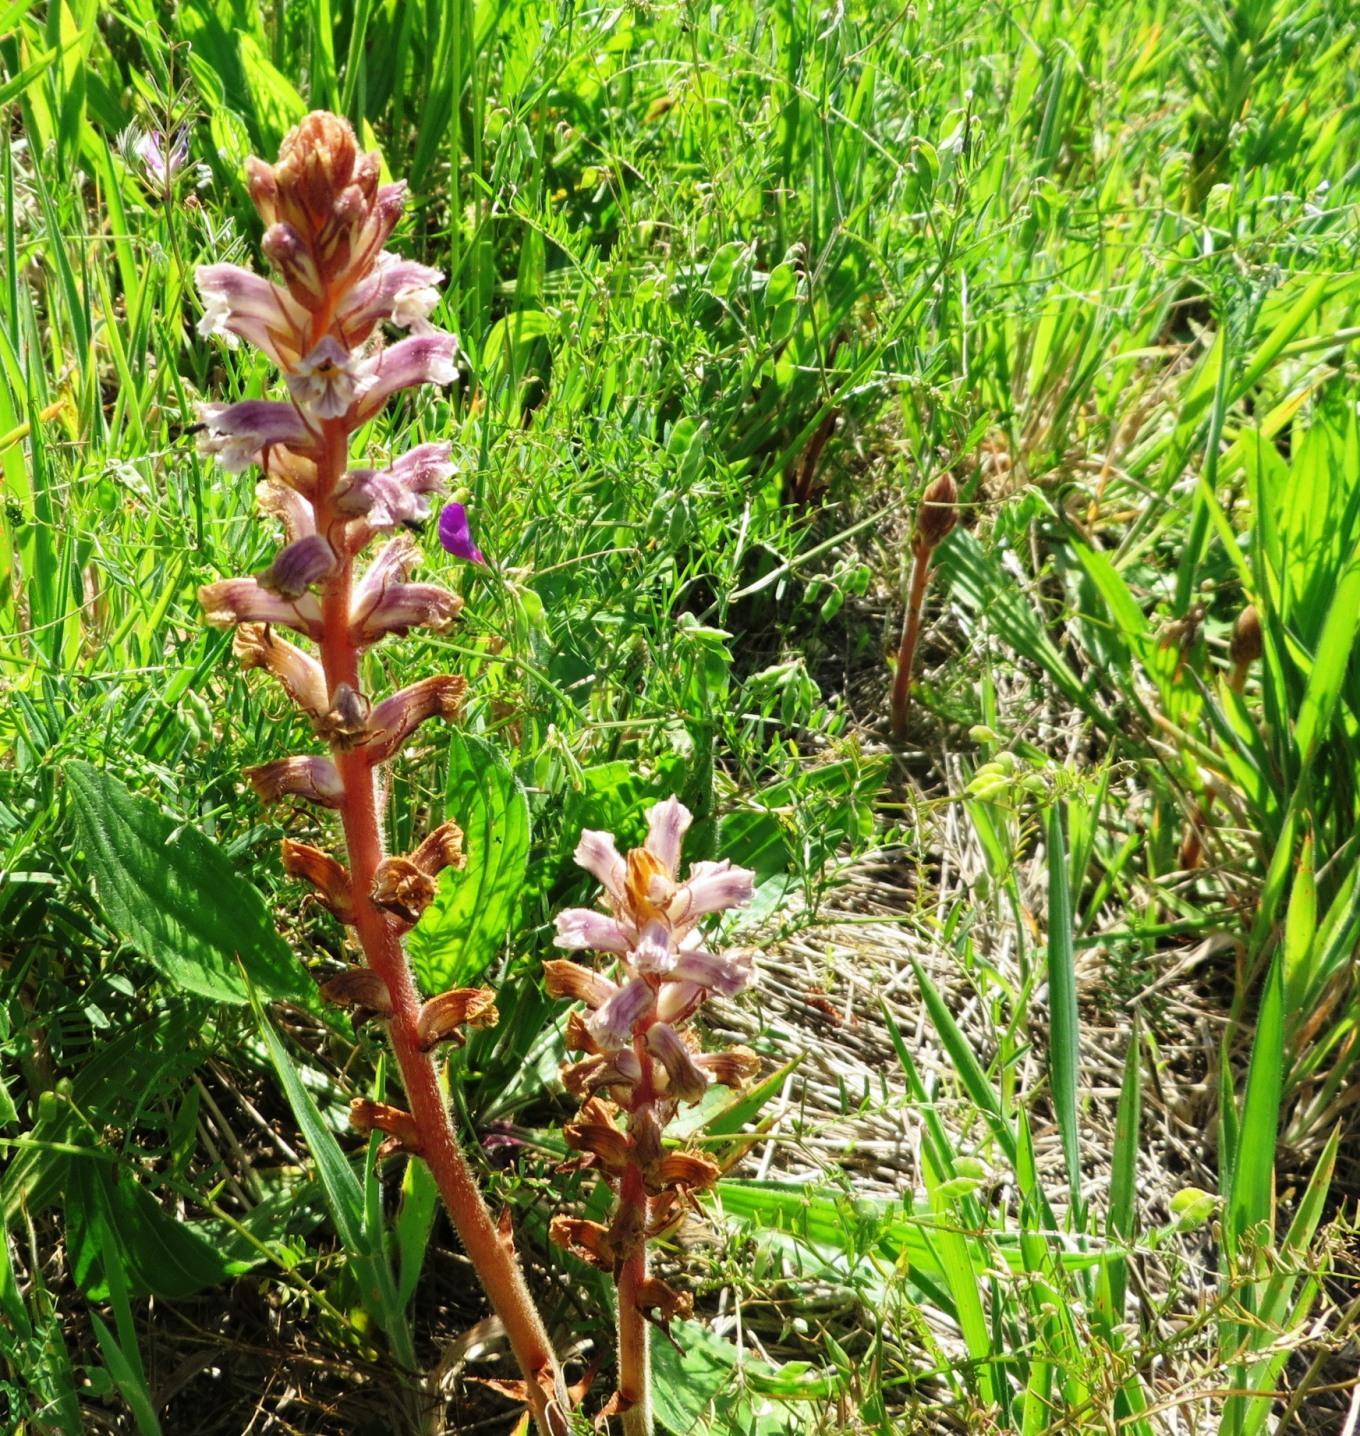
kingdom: Plantae
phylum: Tracheophyta
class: Magnoliopsida
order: Lamiales
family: Orobanchaceae
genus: Orobanche
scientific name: Orobanche minor
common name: Common broomrape
